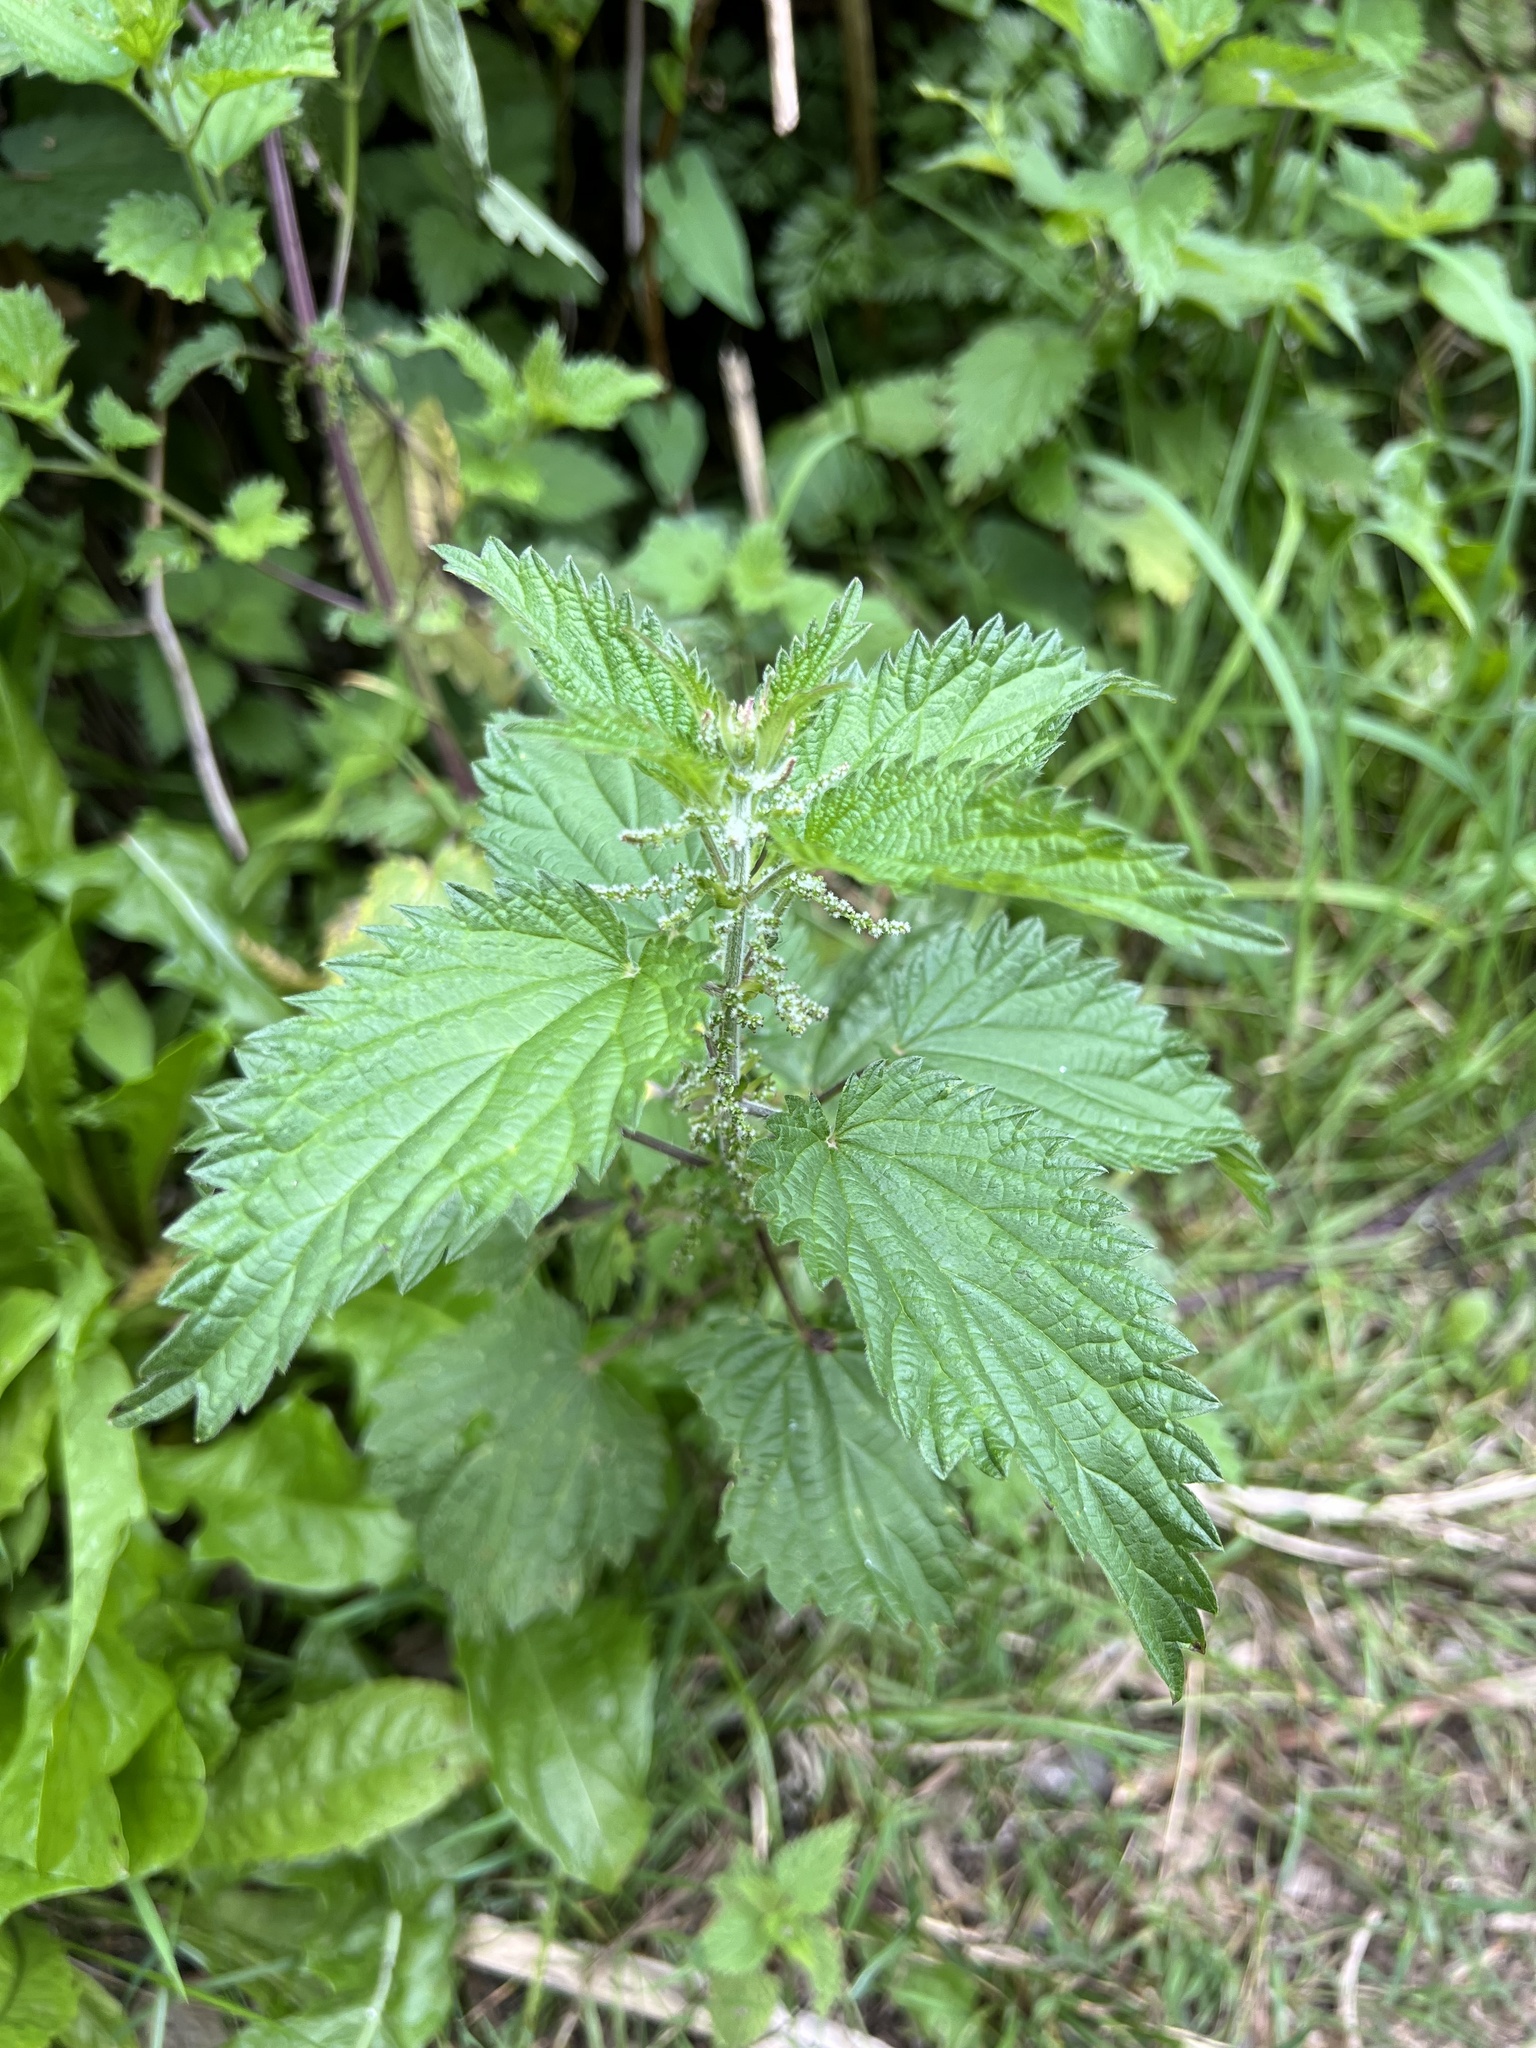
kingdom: Plantae
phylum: Tracheophyta
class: Magnoliopsida
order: Rosales
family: Urticaceae
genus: Urtica
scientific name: Urtica dioica
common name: Common nettle
